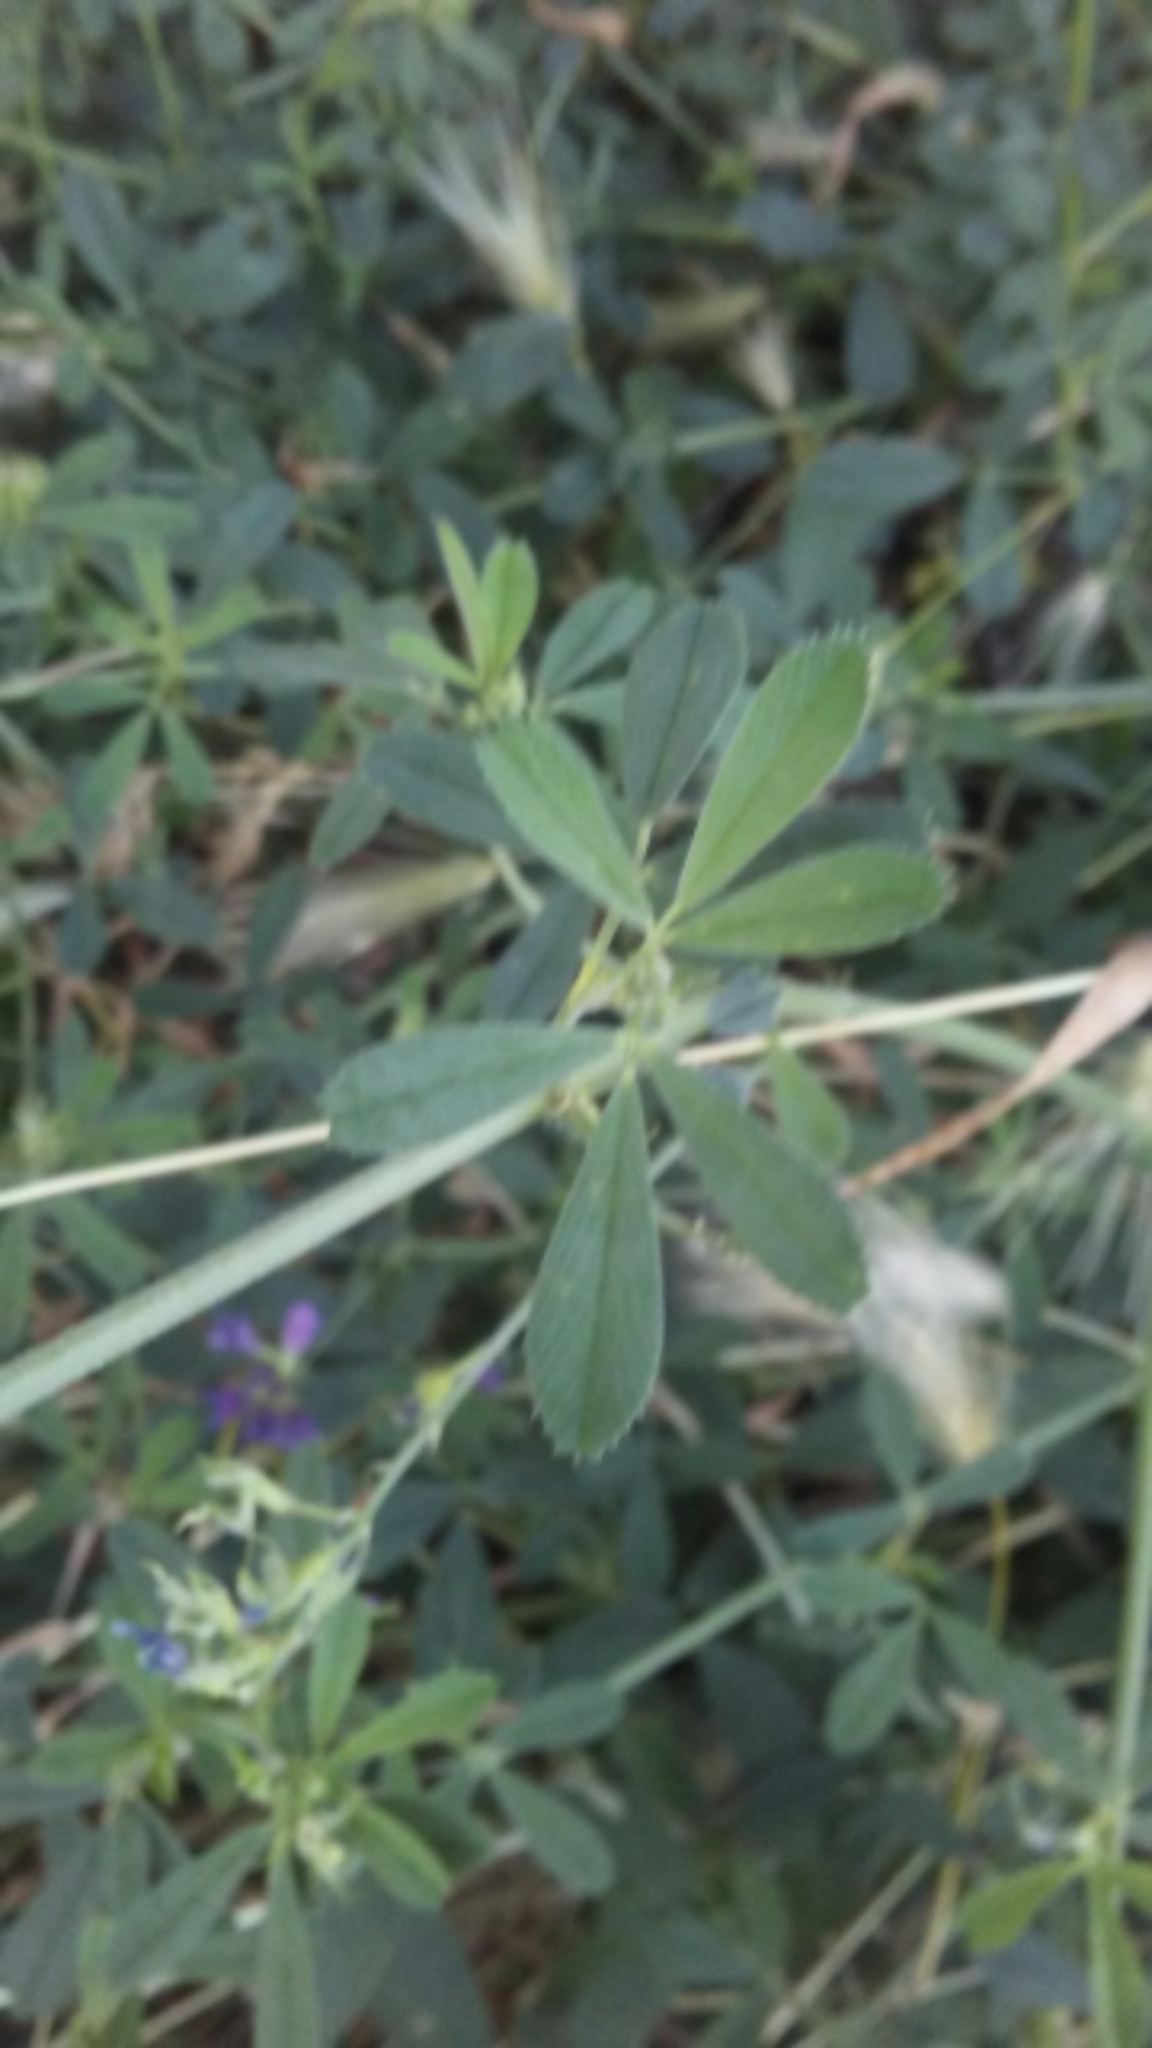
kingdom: Plantae
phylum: Tracheophyta
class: Magnoliopsida
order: Fabales
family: Fabaceae
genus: Medicago
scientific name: Medicago sativa
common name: Alfalfa
